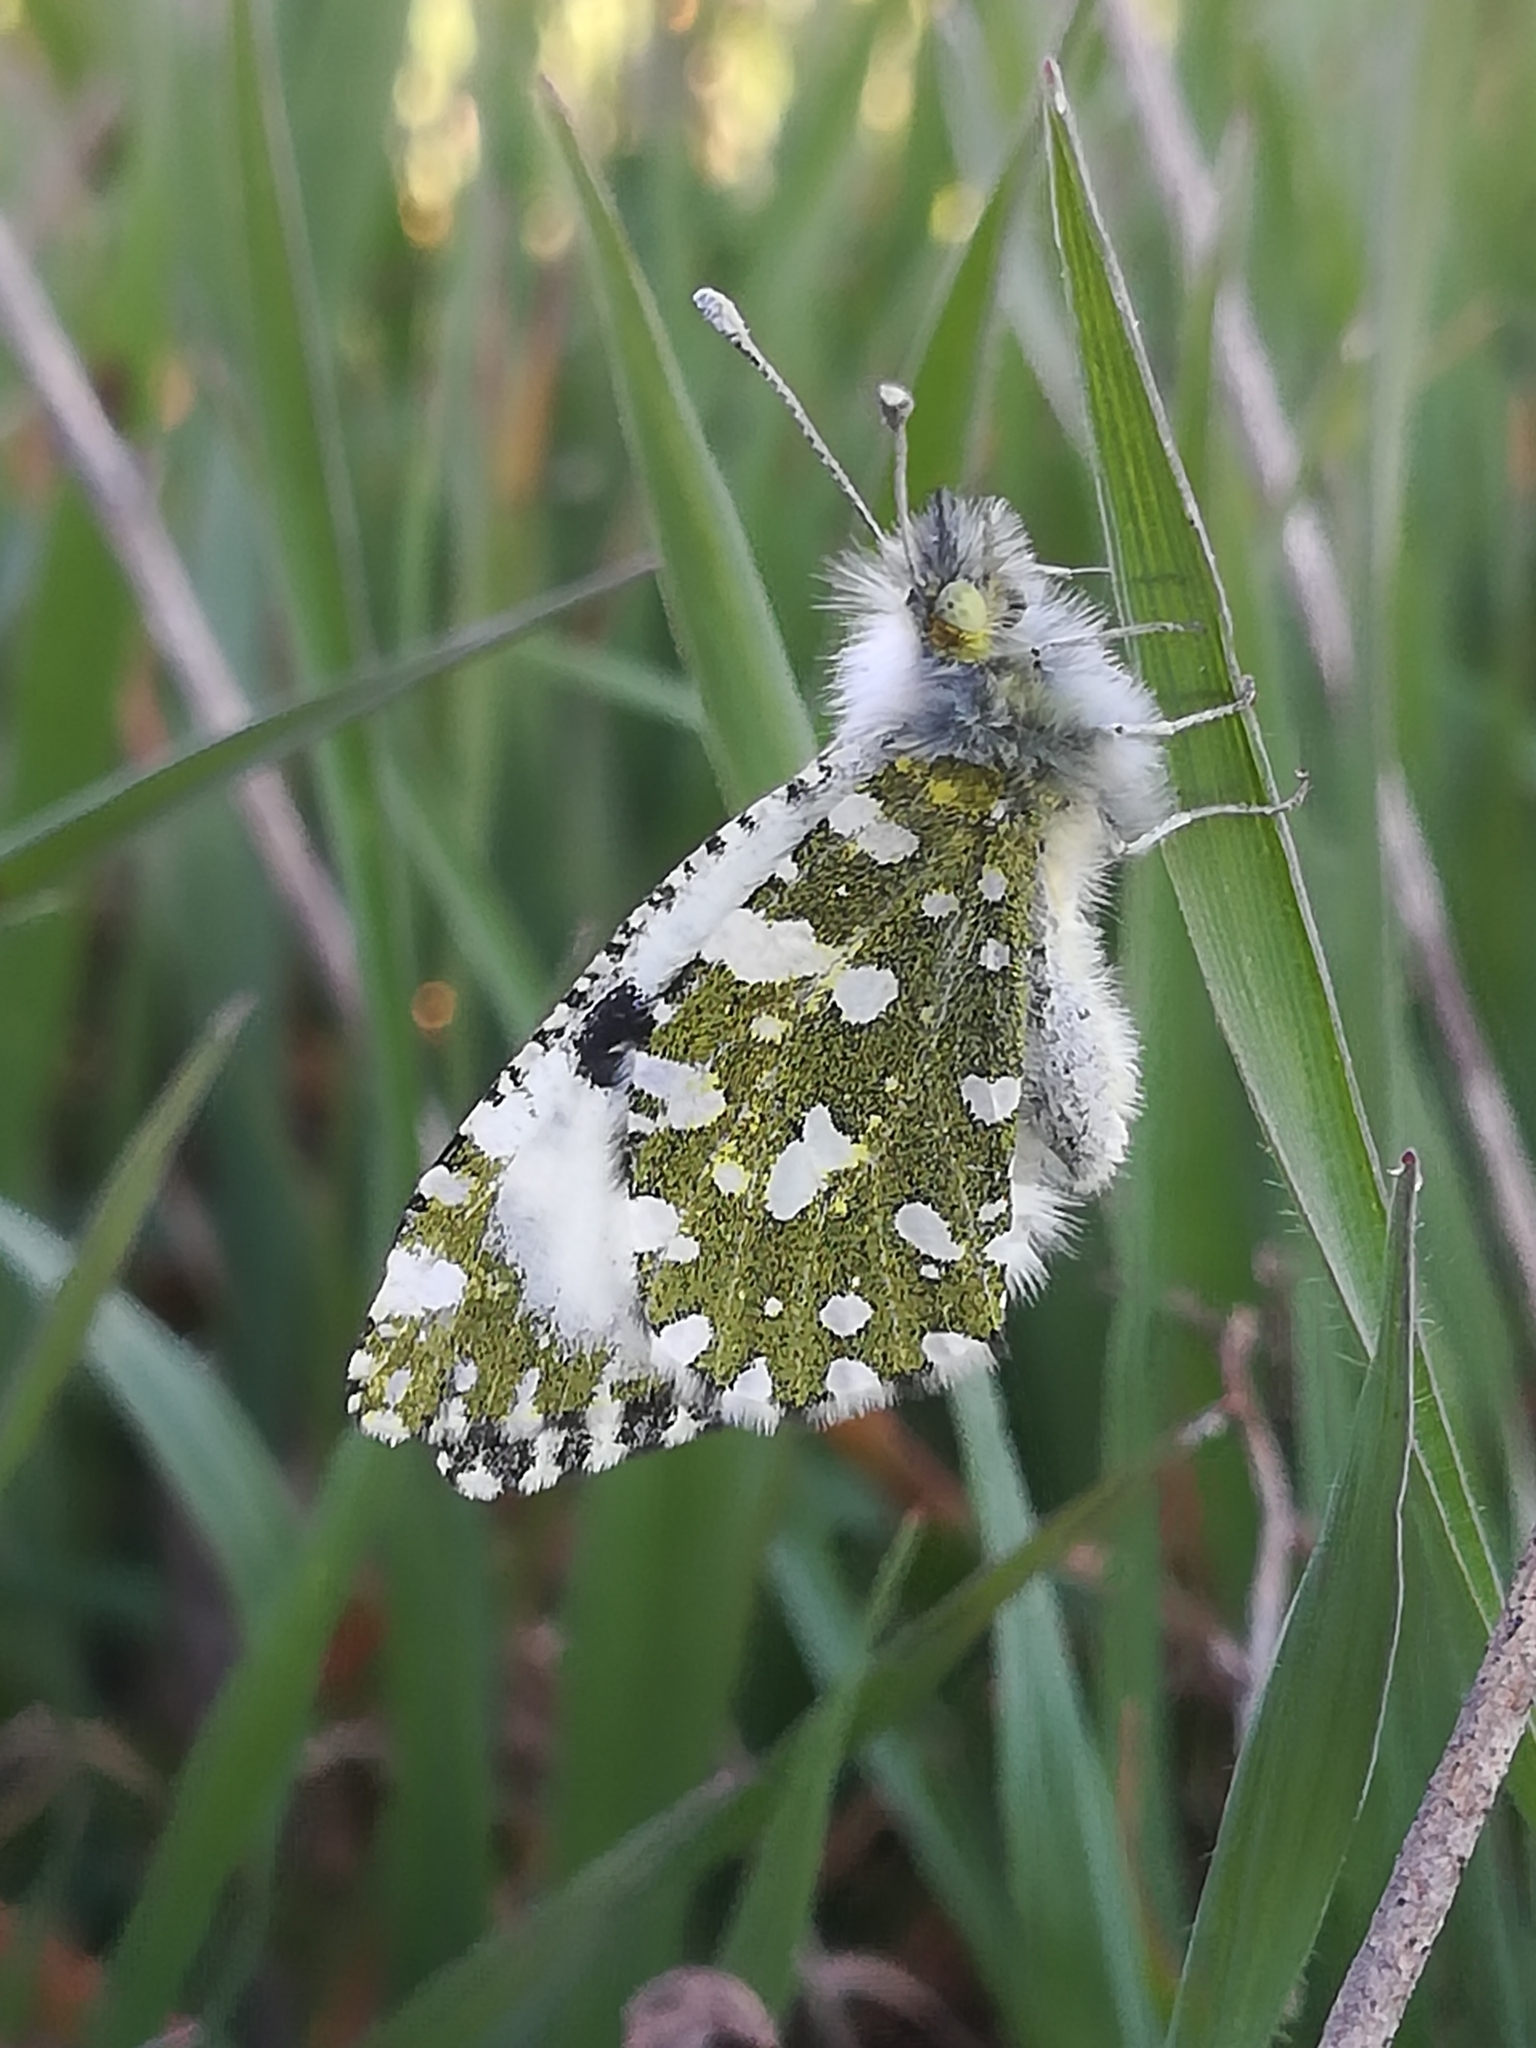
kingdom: Animalia
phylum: Arthropoda
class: Insecta
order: Lepidoptera
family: Pieridae
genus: Euchloe
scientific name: Euchloe ausonia
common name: Eastern dappled white
